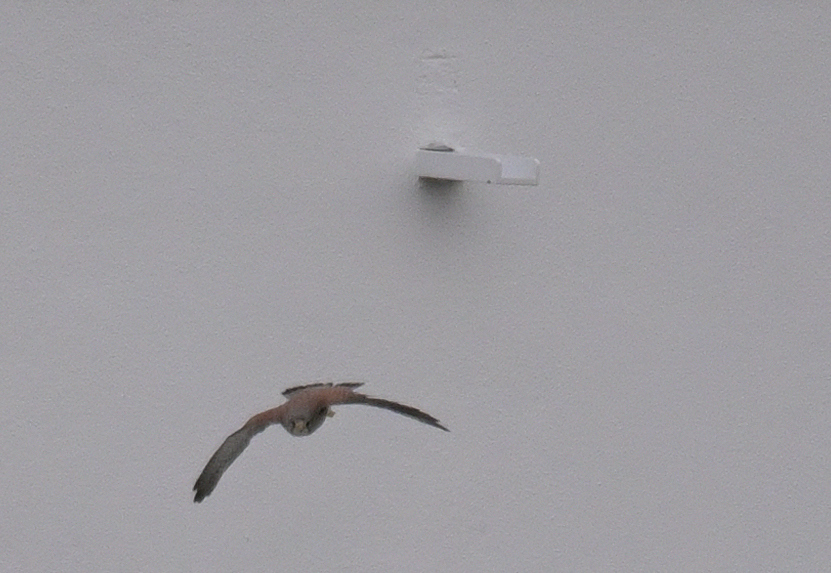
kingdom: Animalia
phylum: Chordata
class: Aves
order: Falconiformes
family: Falconidae
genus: Falco
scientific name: Falco tinnunculus
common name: Common kestrel
